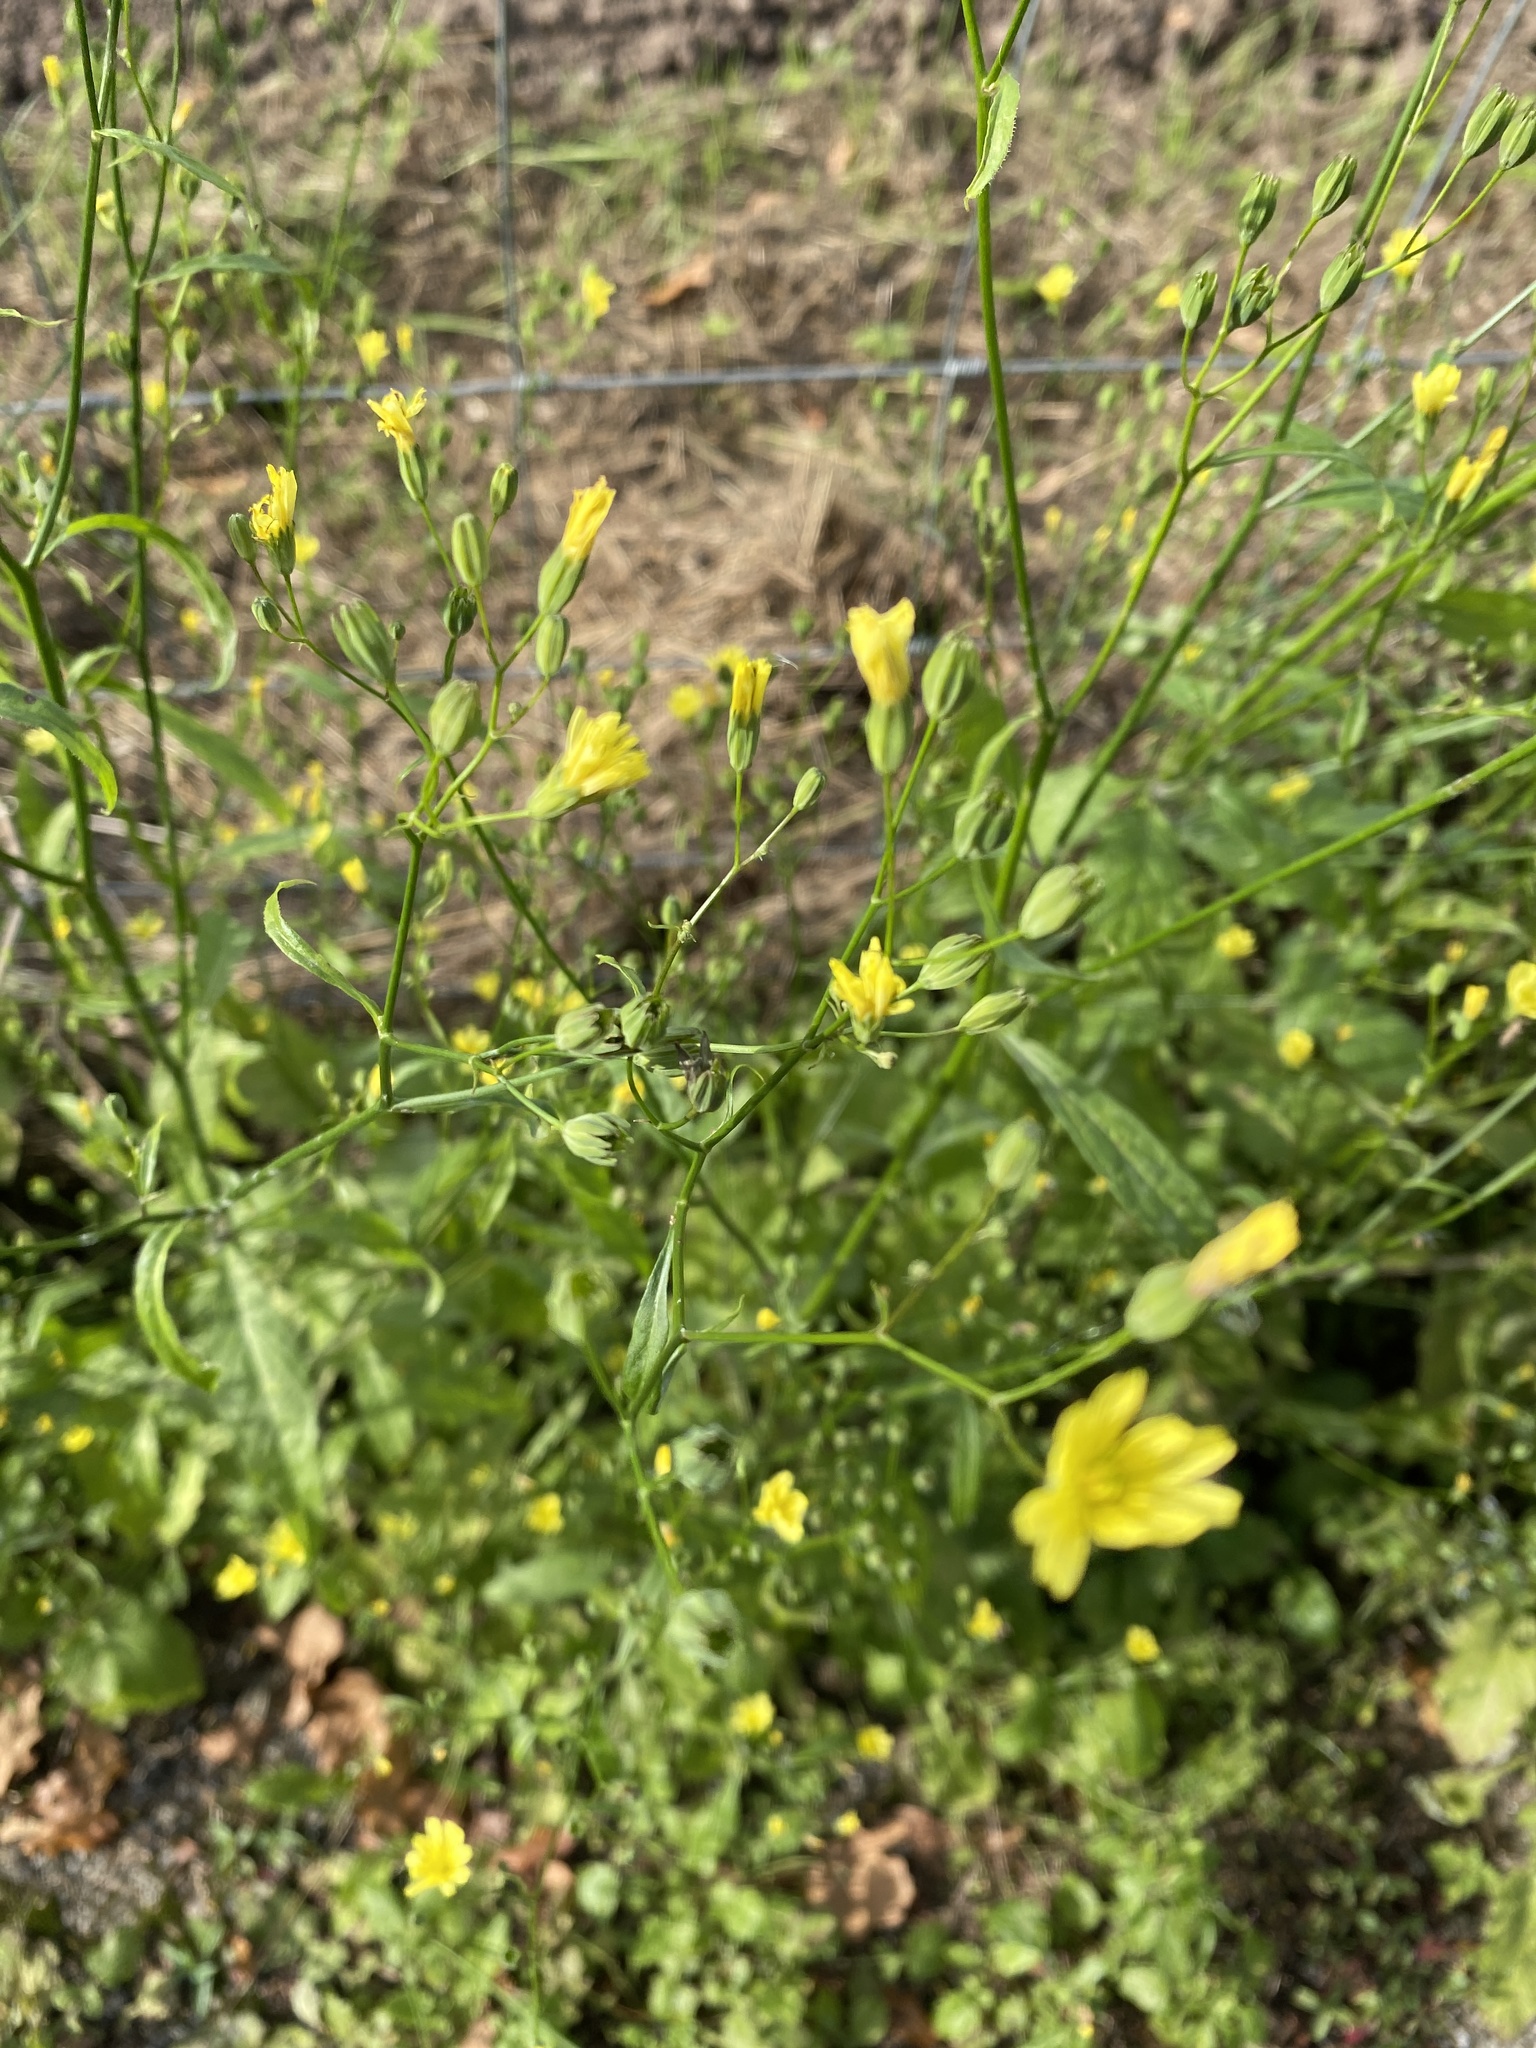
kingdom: Plantae
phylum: Tracheophyta
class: Magnoliopsida
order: Asterales
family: Asteraceae
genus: Lapsana
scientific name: Lapsana communis
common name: Nipplewort
